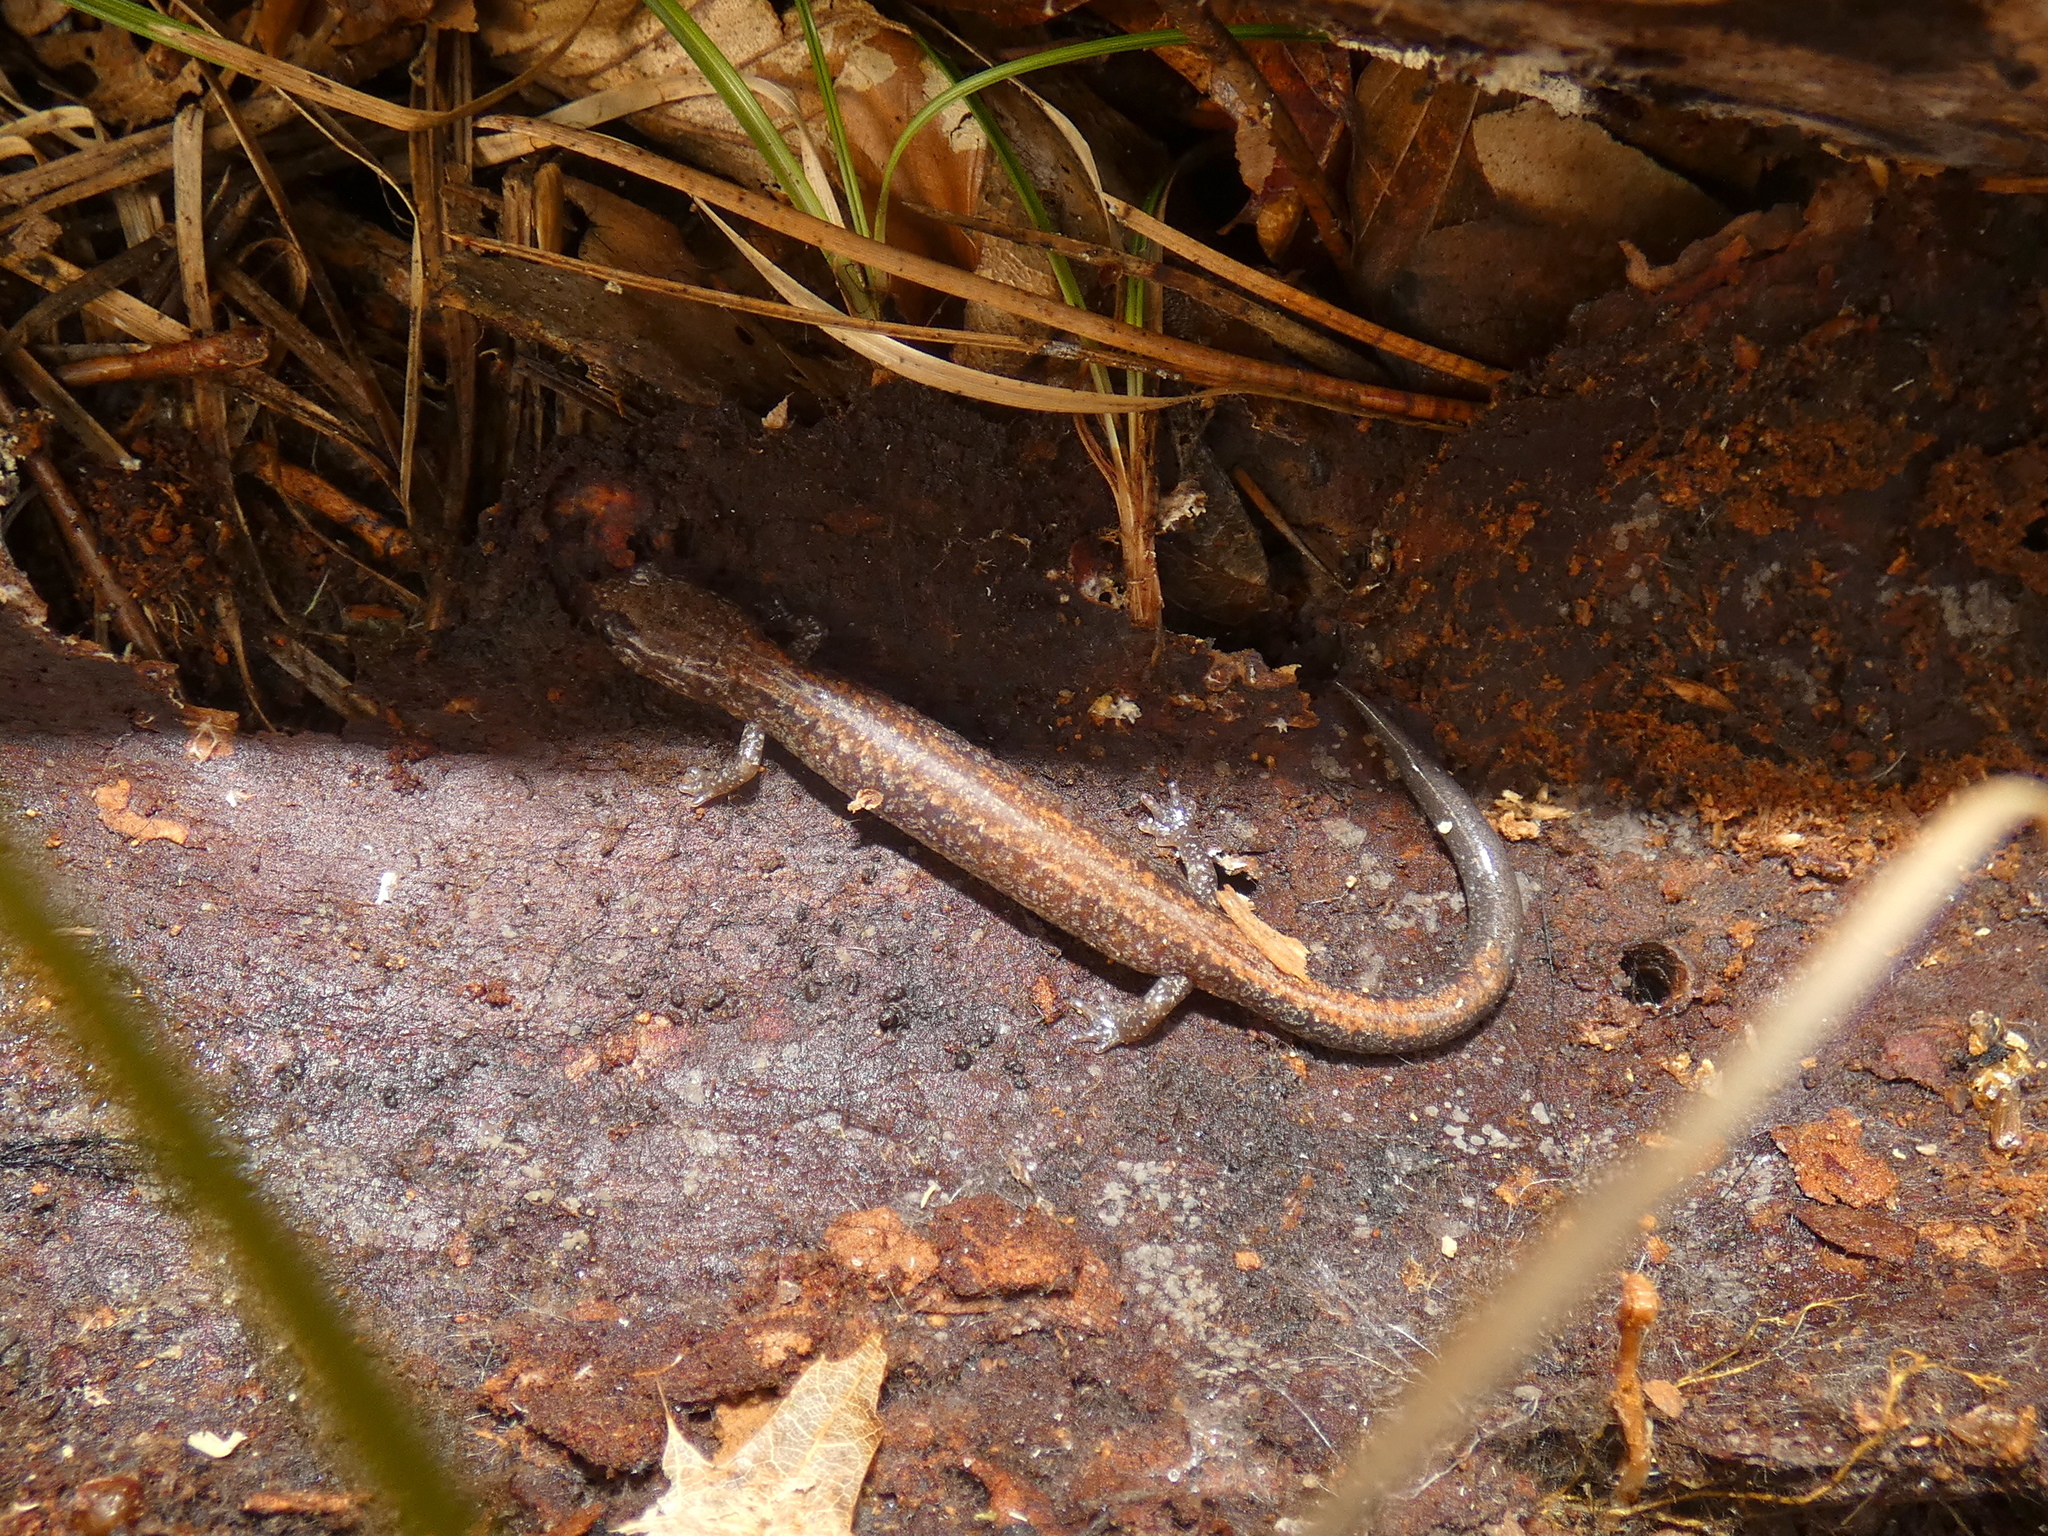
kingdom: Animalia
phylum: Chordata
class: Amphibia
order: Caudata
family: Plethodontidae
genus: Plethodon
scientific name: Plethodon cinereus
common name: Redback salamander
